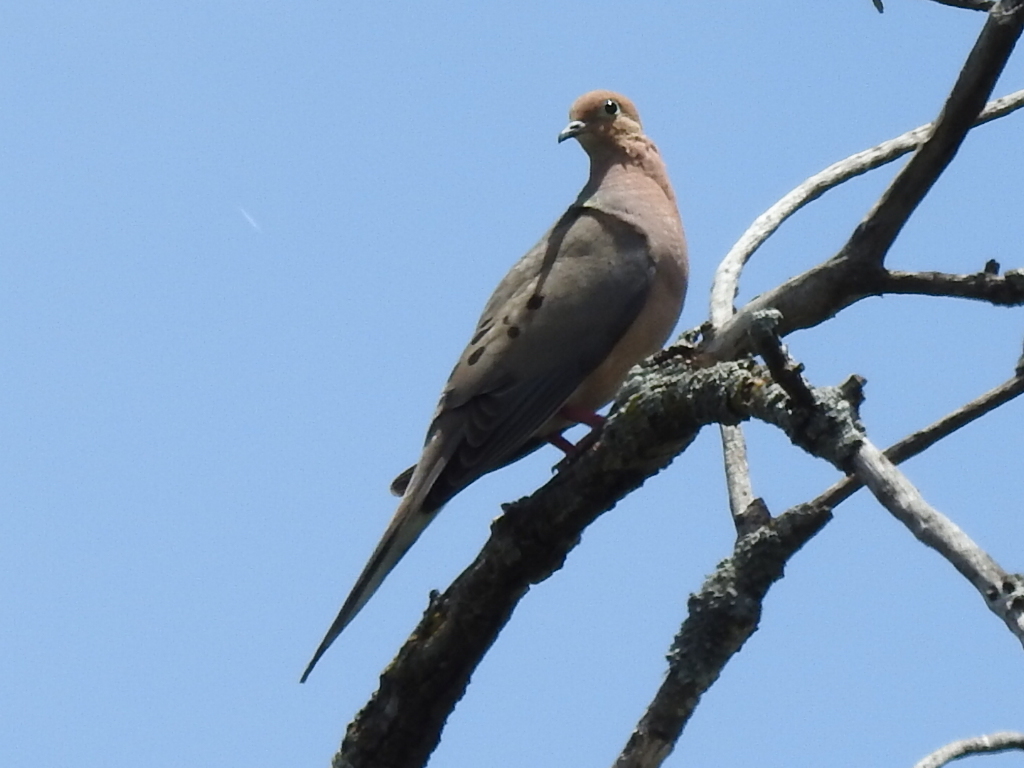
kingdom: Animalia
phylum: Chordata
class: Aves
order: Columbiformes
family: Columbidae
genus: Zenaida
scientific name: Zenaida macroura
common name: Mourning dove
